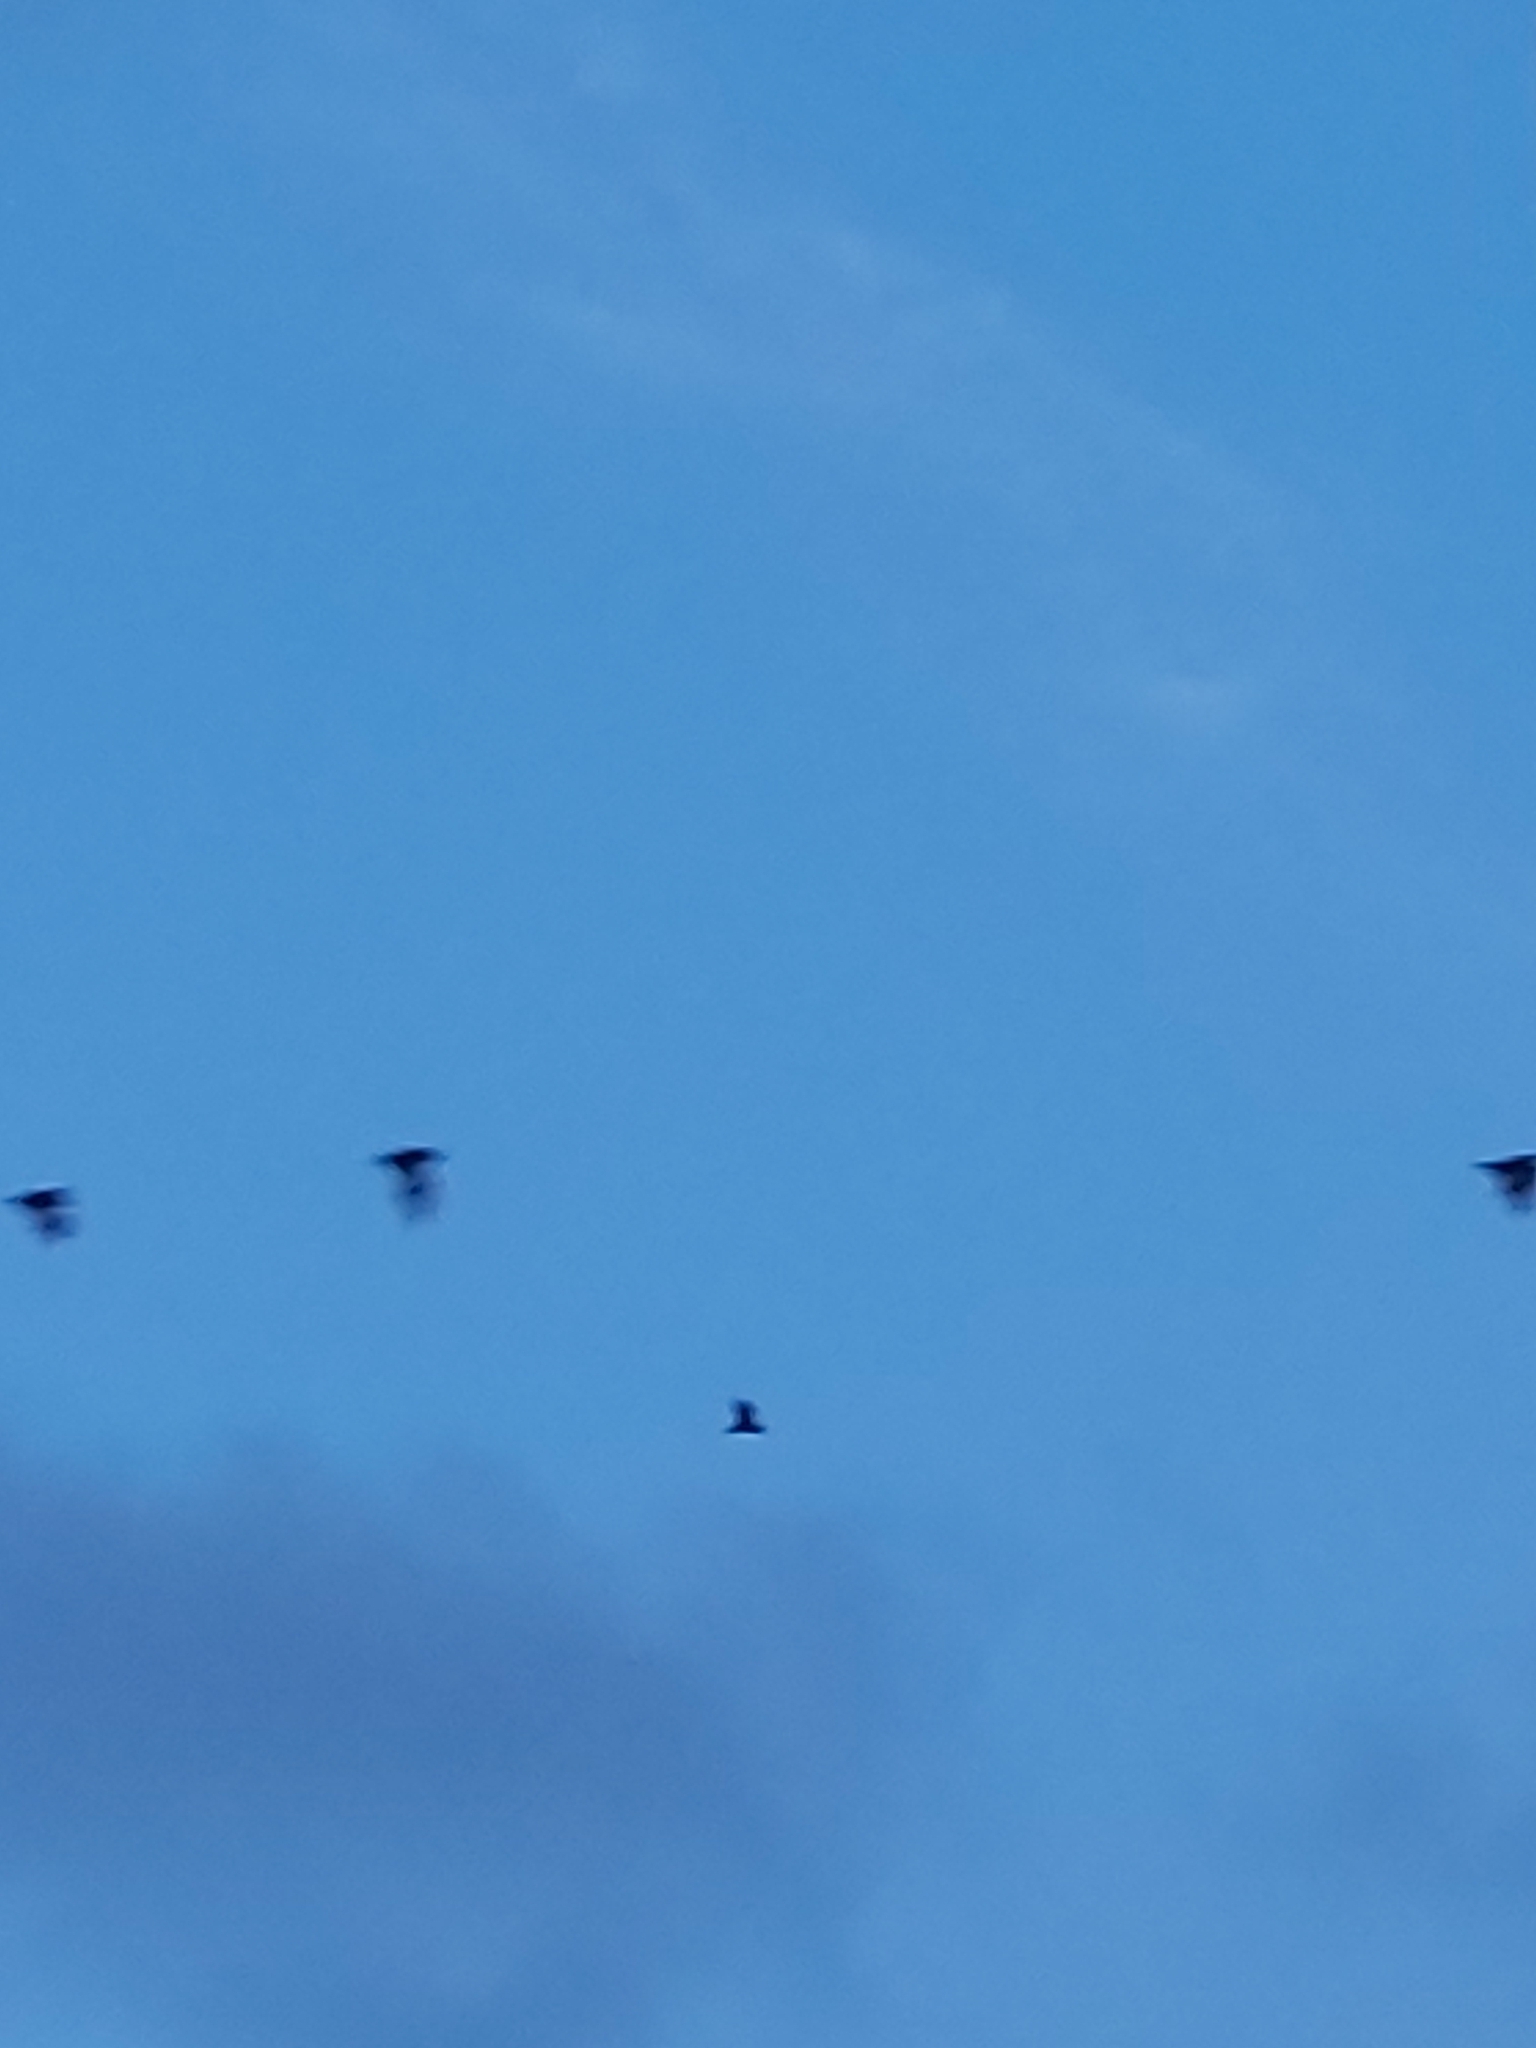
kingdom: Animalia
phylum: Chordata
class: Mammalia
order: Chiroptera
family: Pteropodidae
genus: Pteropus
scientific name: Pteropus
